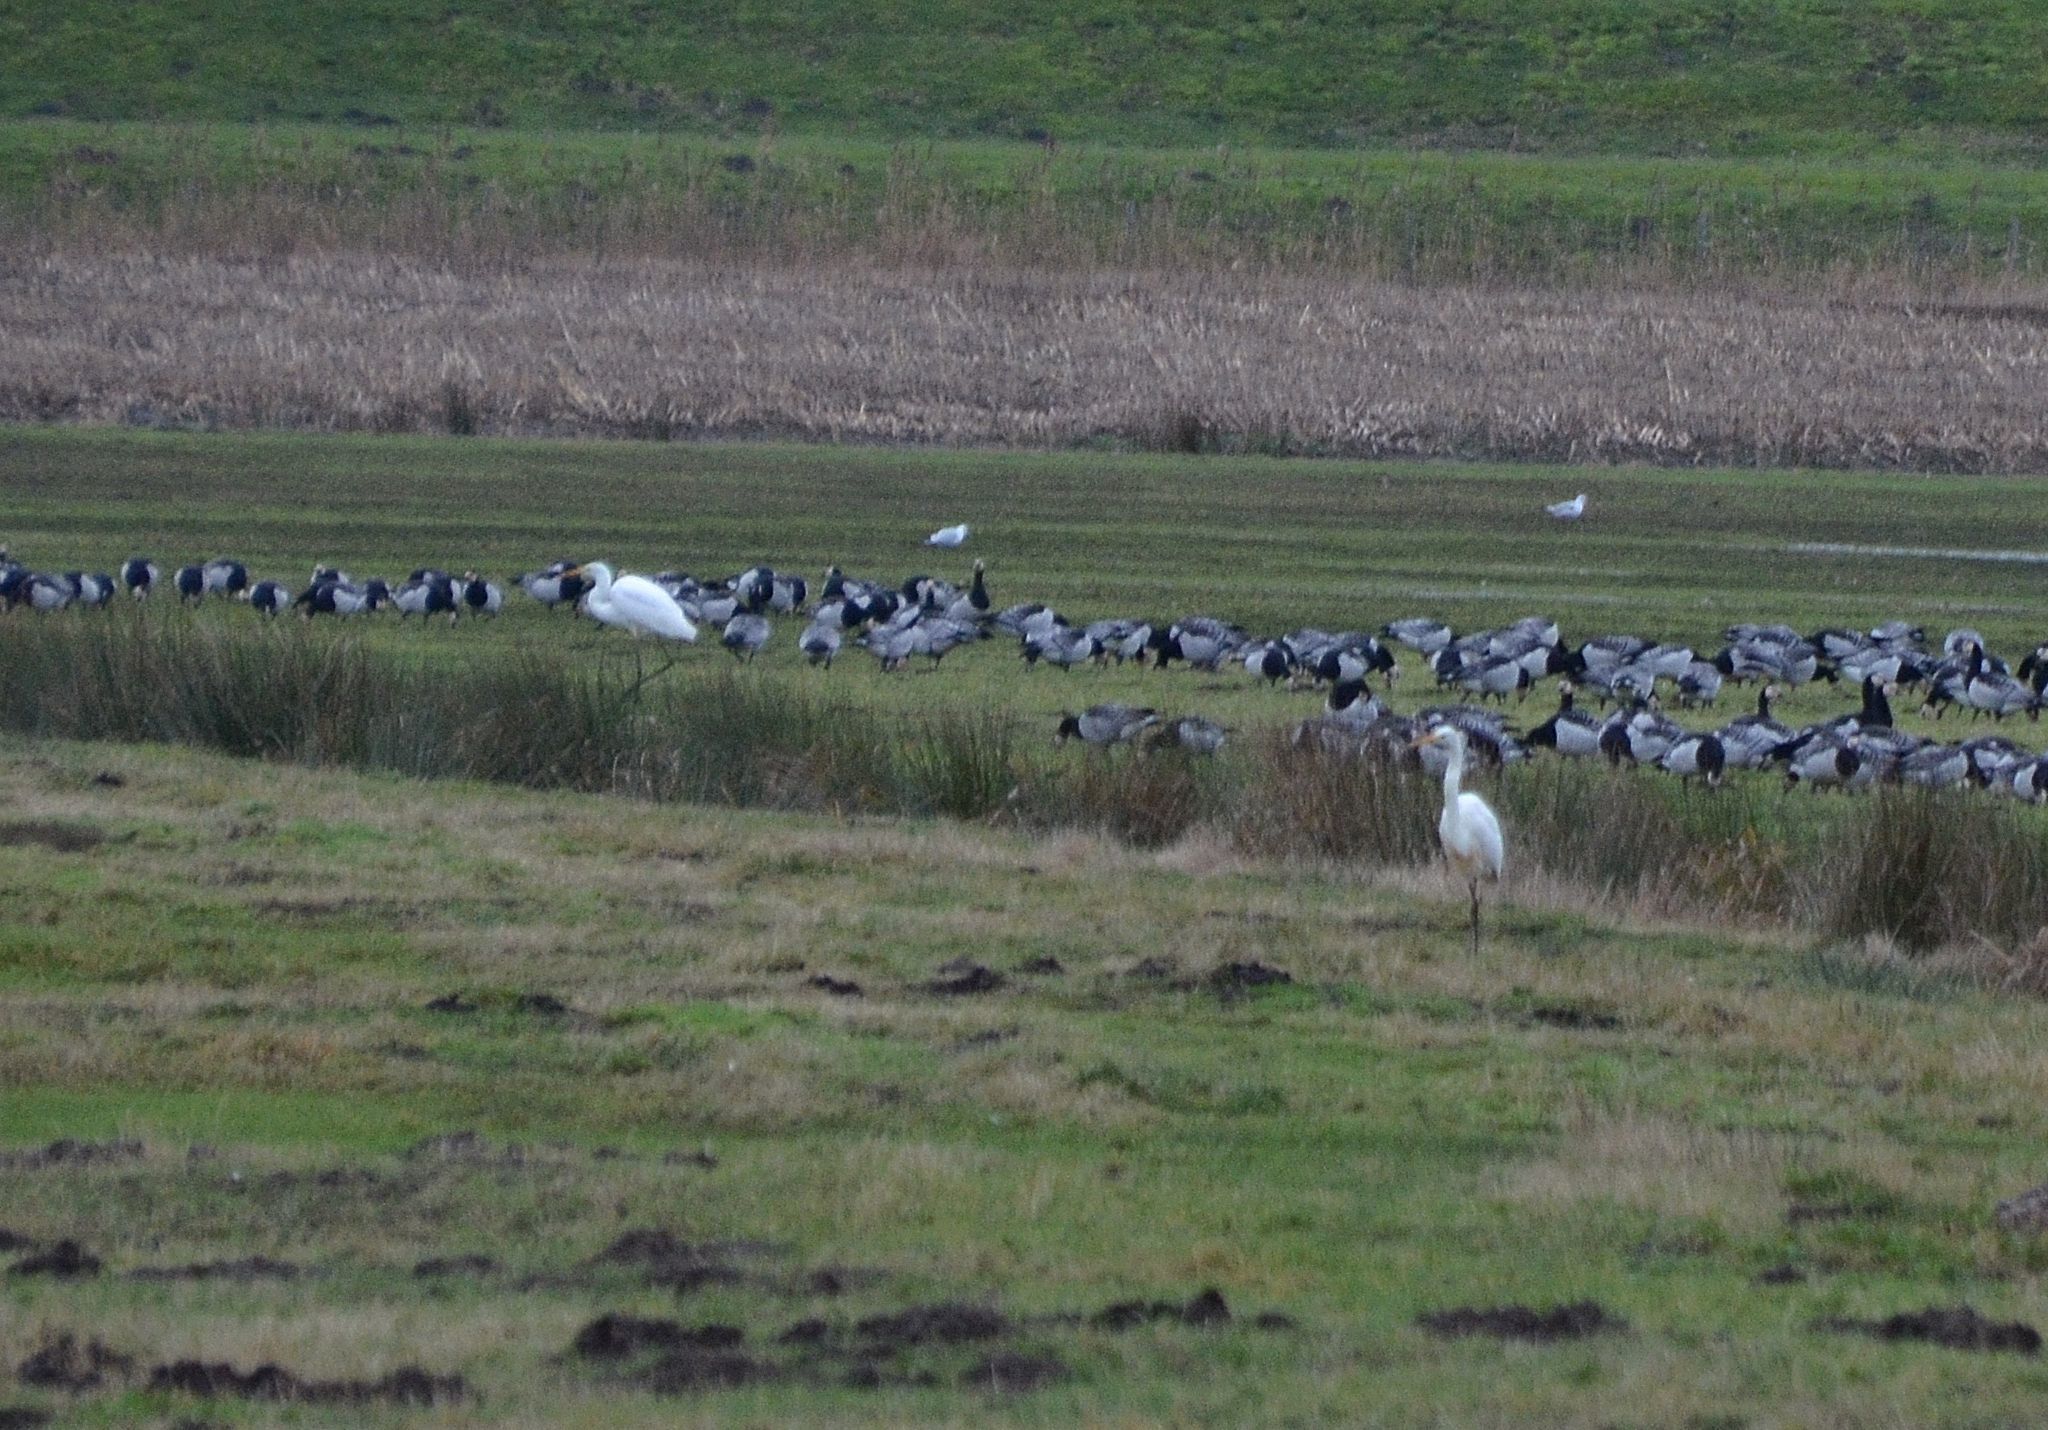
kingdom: Animalia
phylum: Chordata
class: Aves
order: Pelecaniformes
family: Ardeidae
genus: Ardea
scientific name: Ardea alba
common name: Great egret
